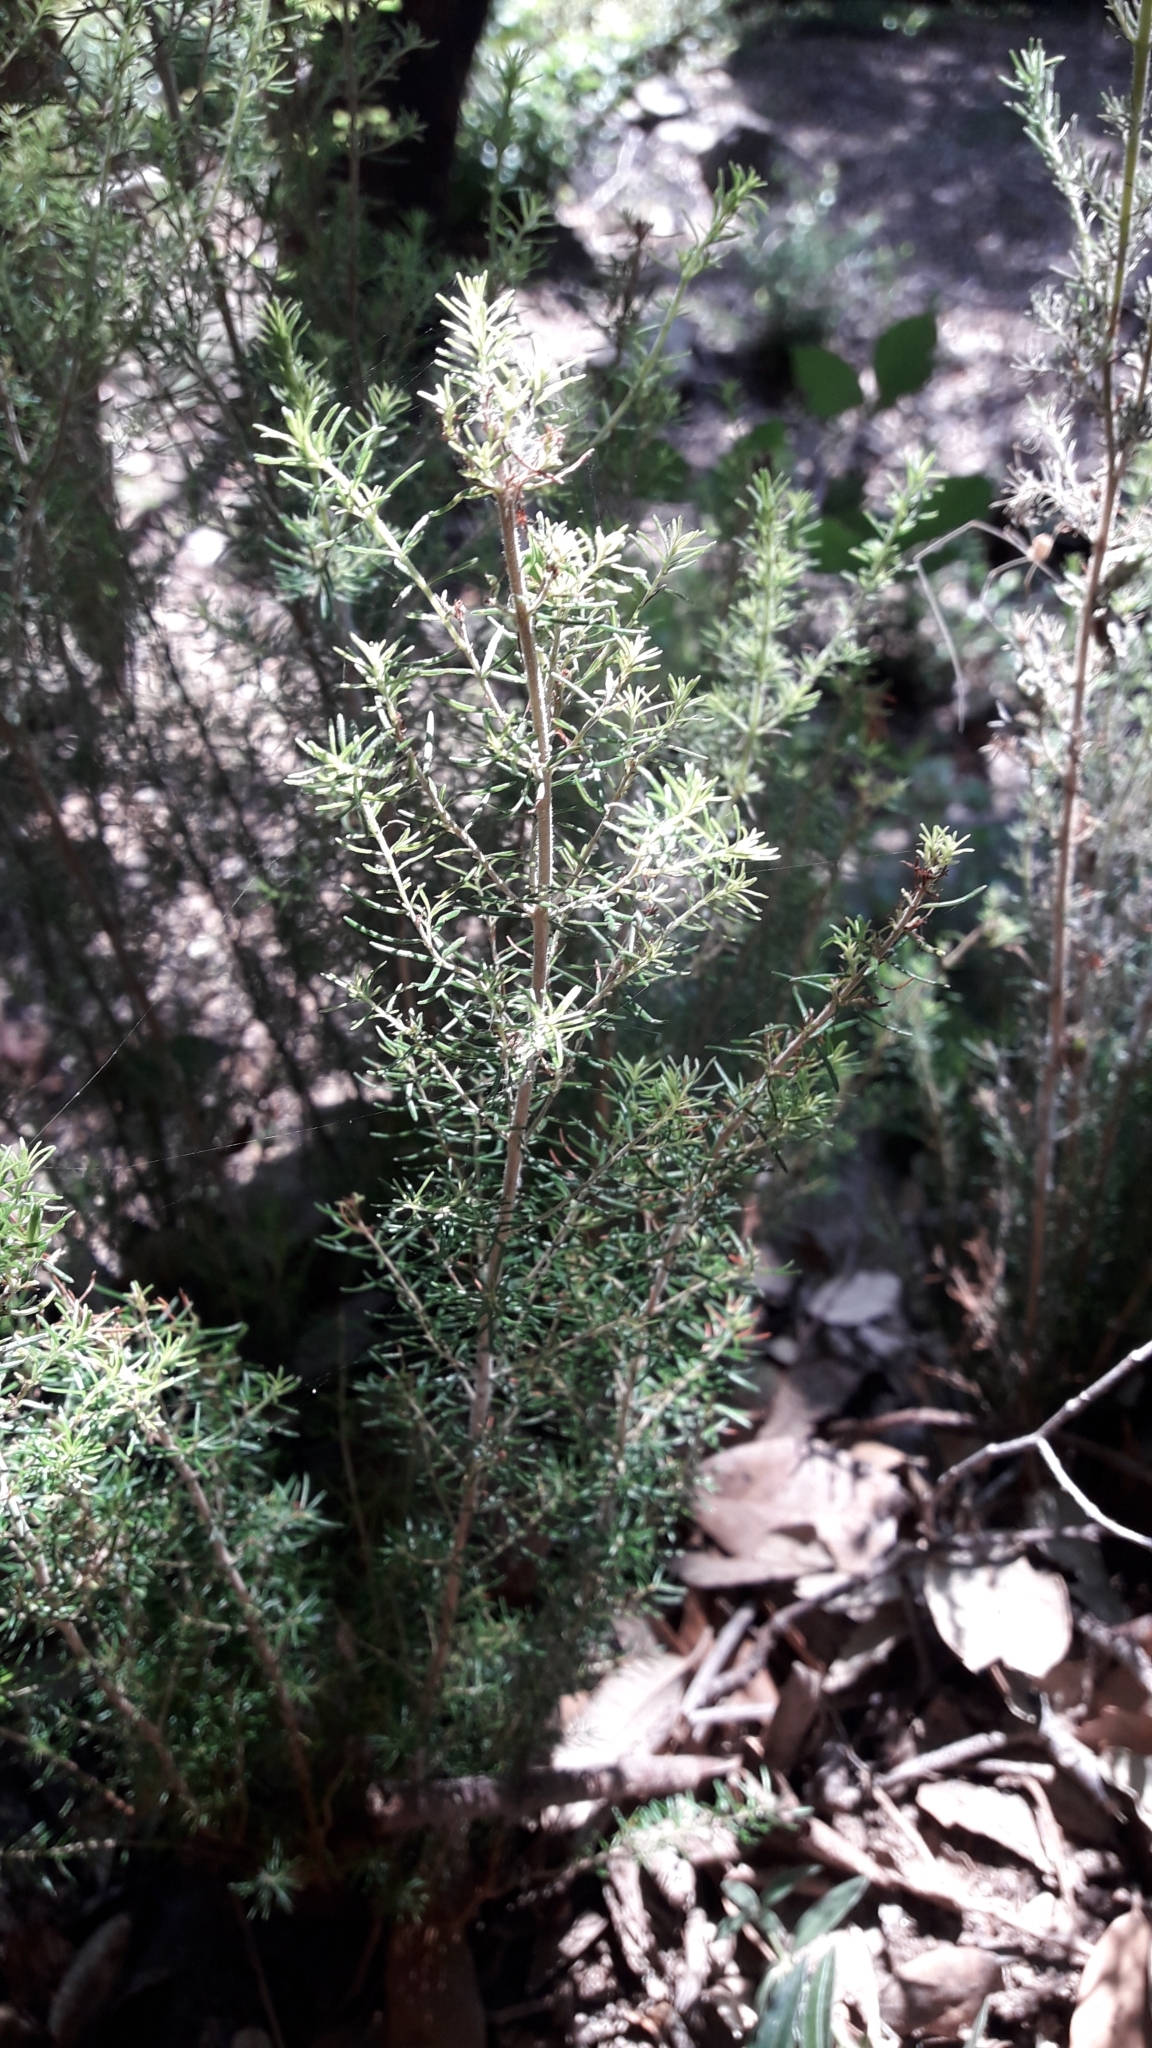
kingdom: Plantae
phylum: Tracheophyta
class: Magnoliopsida
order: Ericales
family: Ericaceae
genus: Erica
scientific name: Erica arborea
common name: Tree heath
